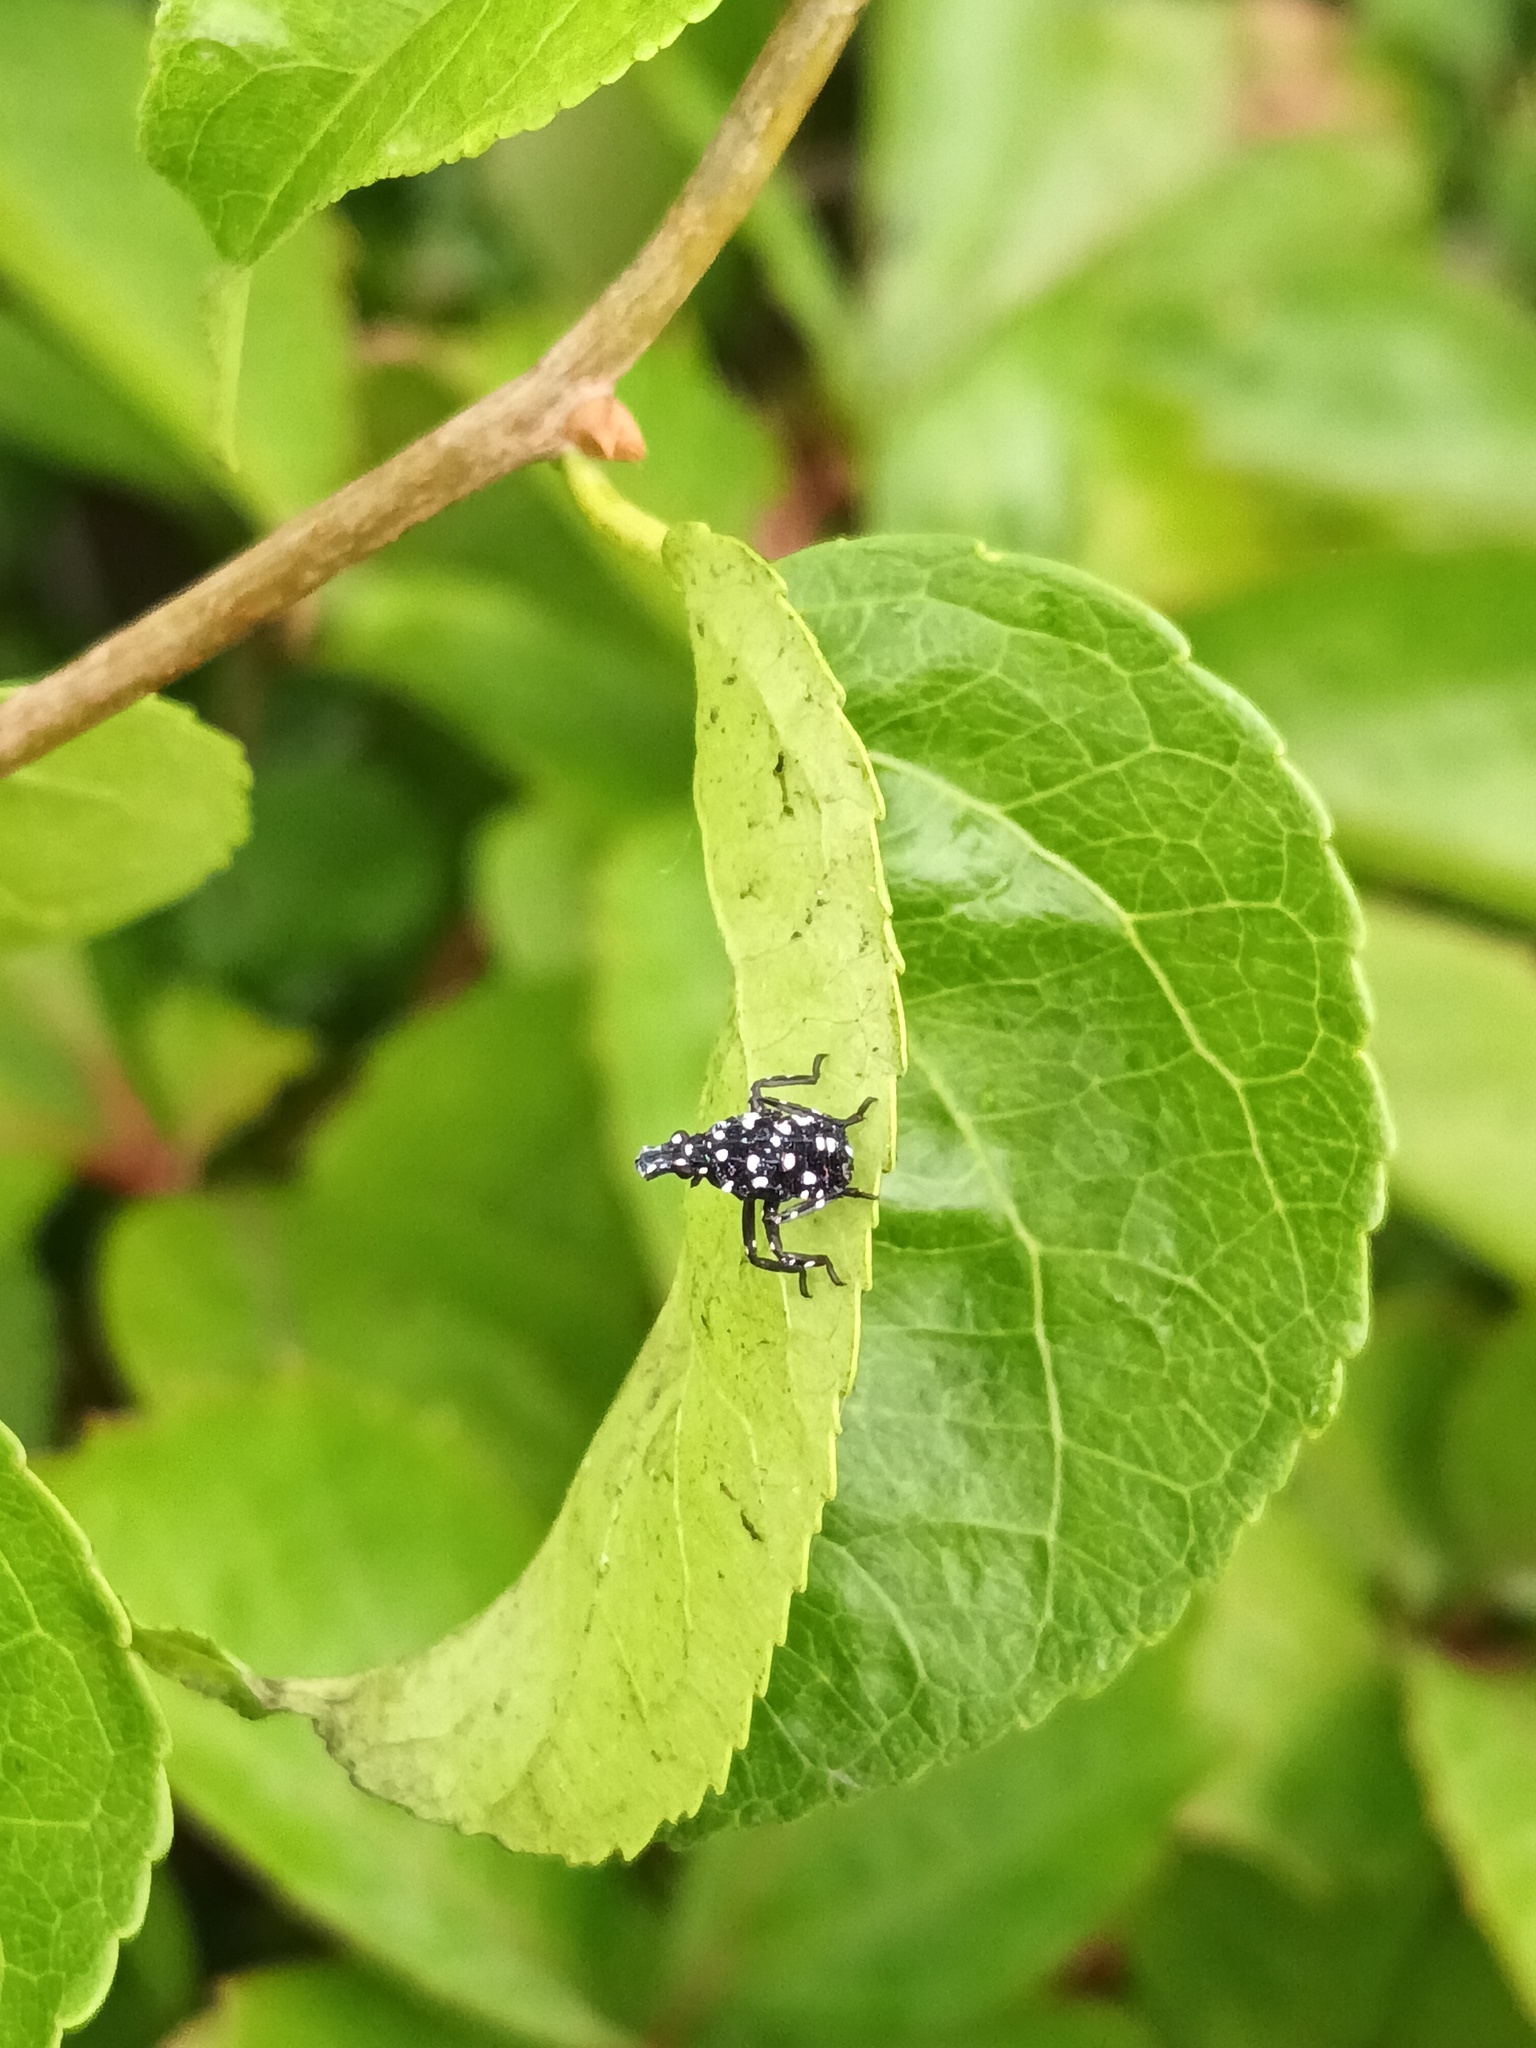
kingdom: Animalia
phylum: Arthropoda
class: Insecta
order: Hemiptera
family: Fulgoridae
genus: Lycorma
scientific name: Lycorma delicatula
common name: Spotted lanternfly
